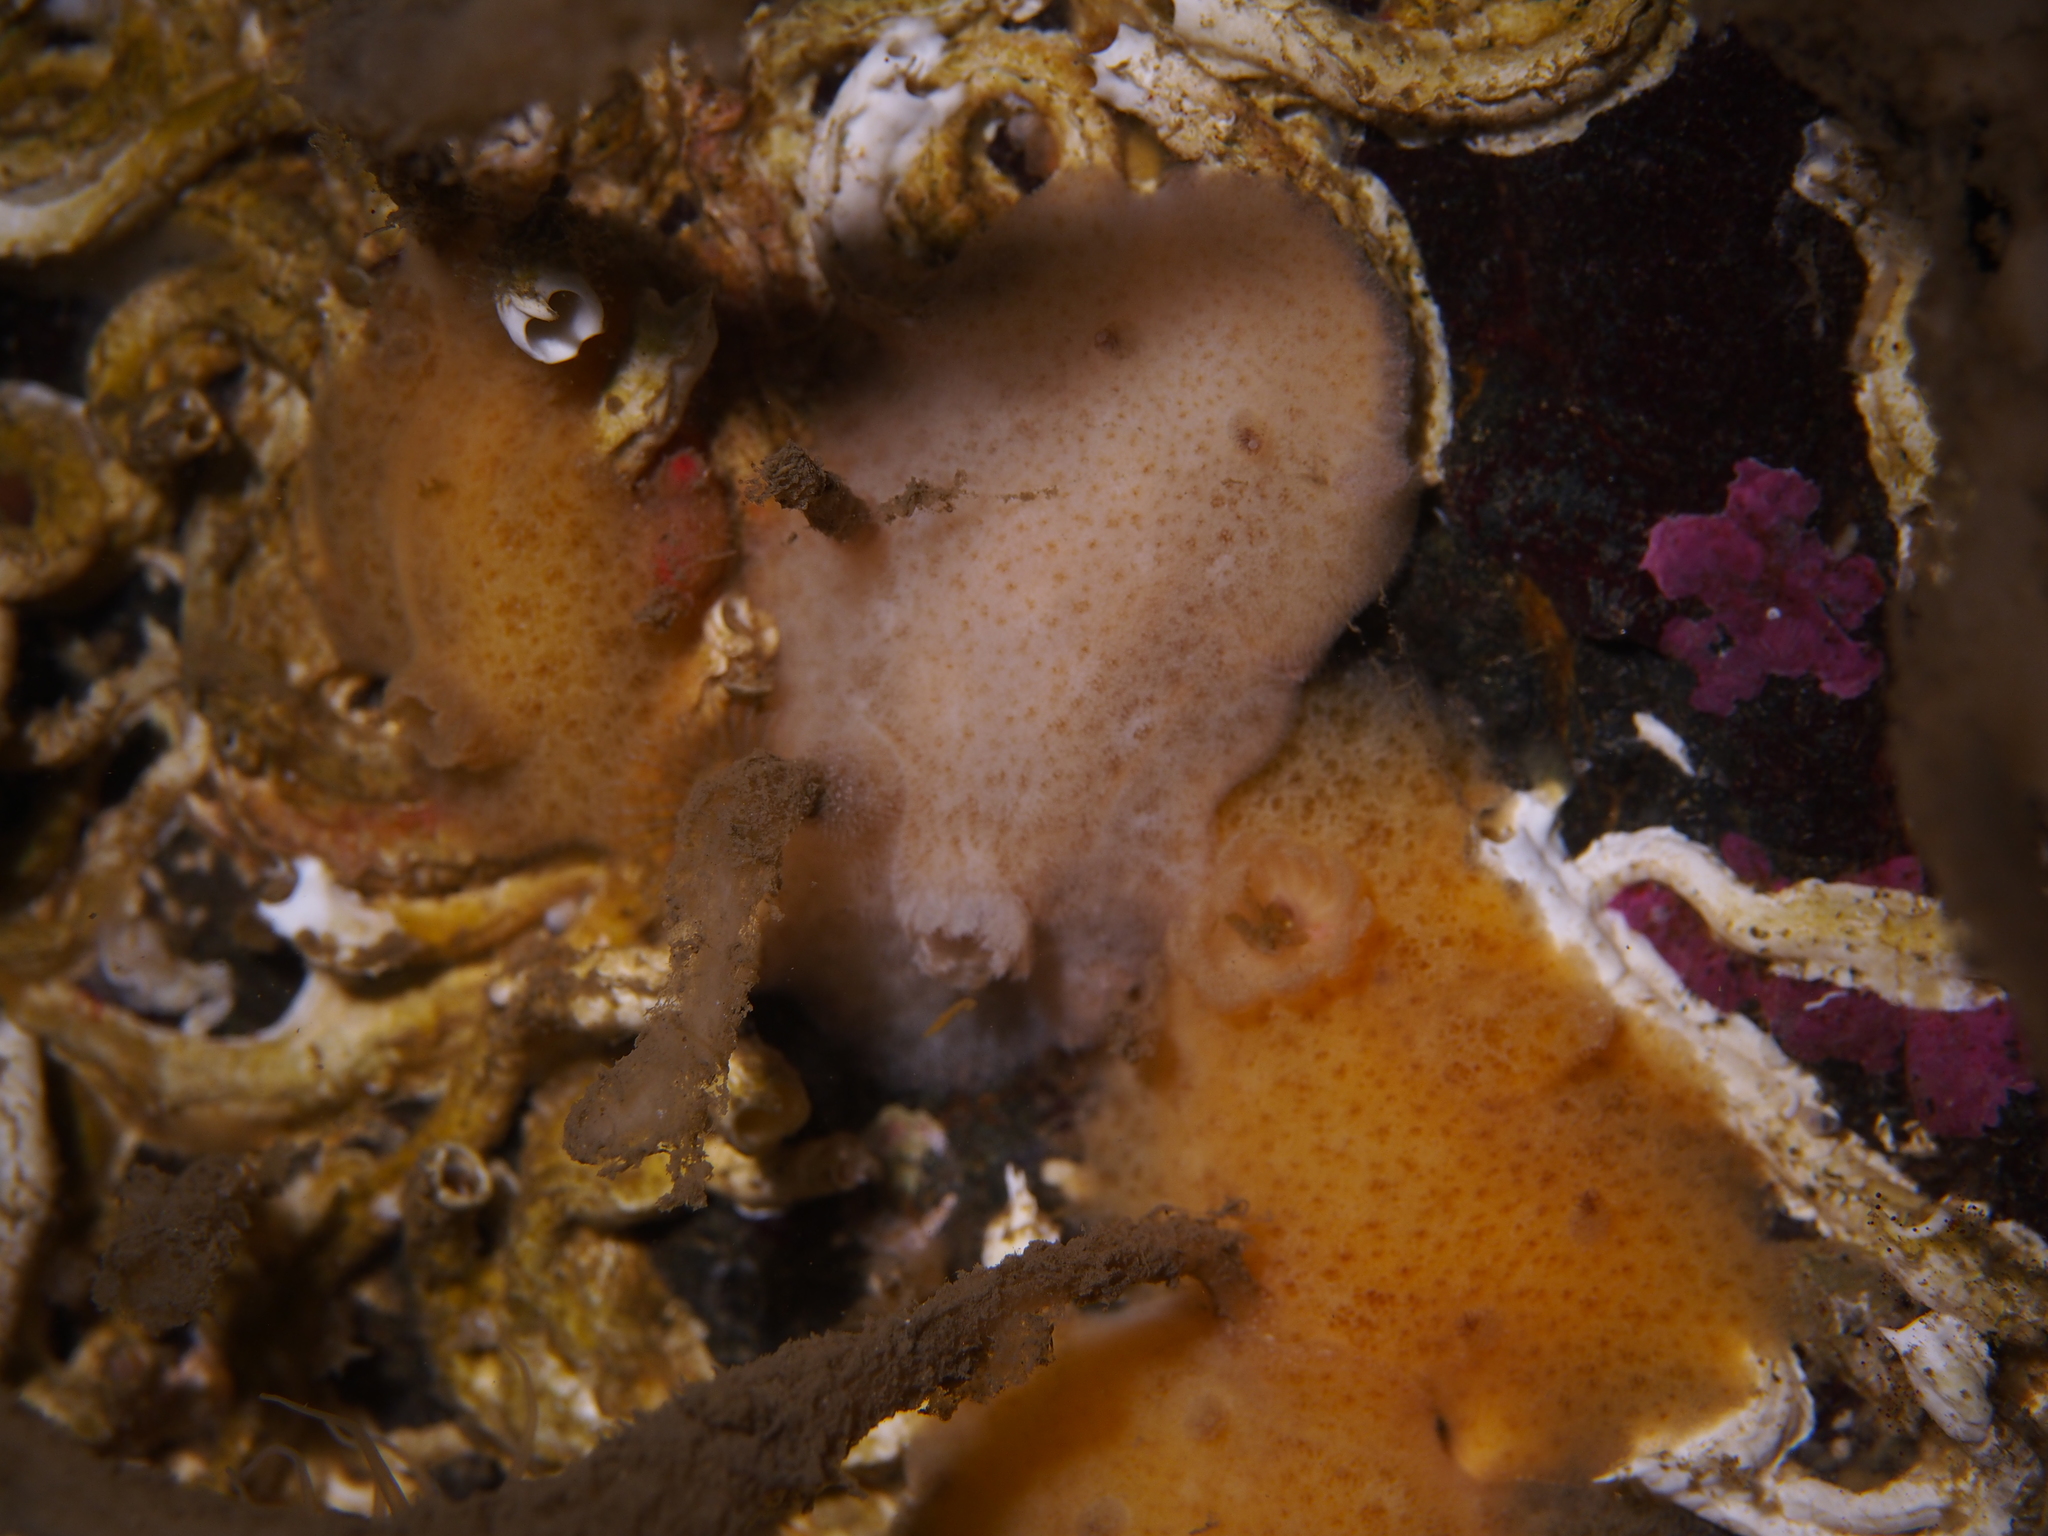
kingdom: Animalia
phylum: Mollusca
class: Gastropoda
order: Nudibranchia
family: Discodorididae
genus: Jorunna
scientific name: Jorunna tomentosa
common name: Grey sea slug
